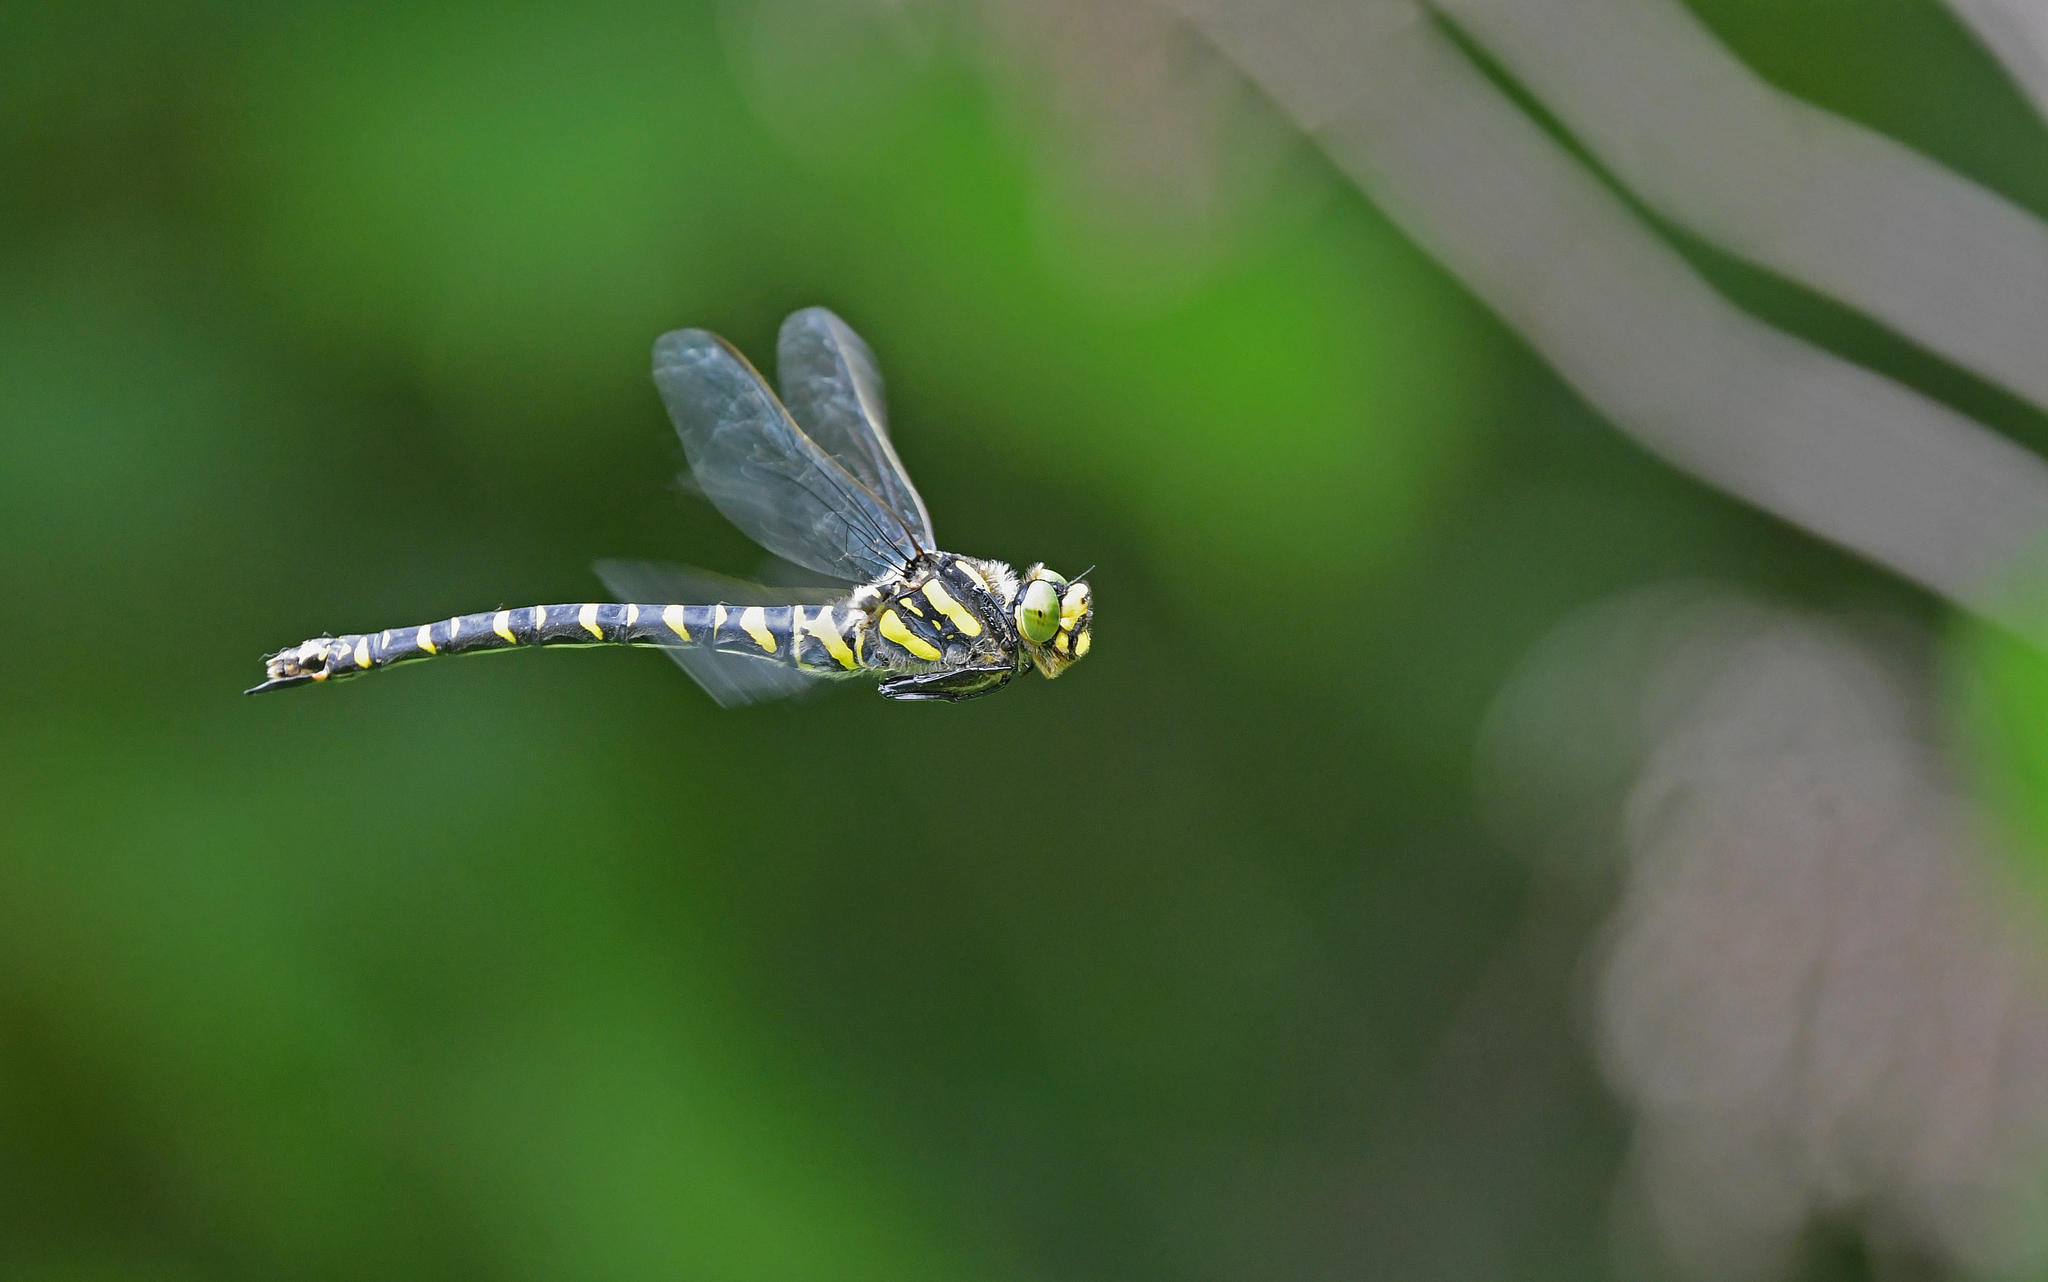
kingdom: Animalia
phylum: Arthropoda
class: Insecta
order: Odonata
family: Cordulegastridae
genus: Cordulegaster
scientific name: Cordulegaster boltonii
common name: Golden-ringed dragonfly
